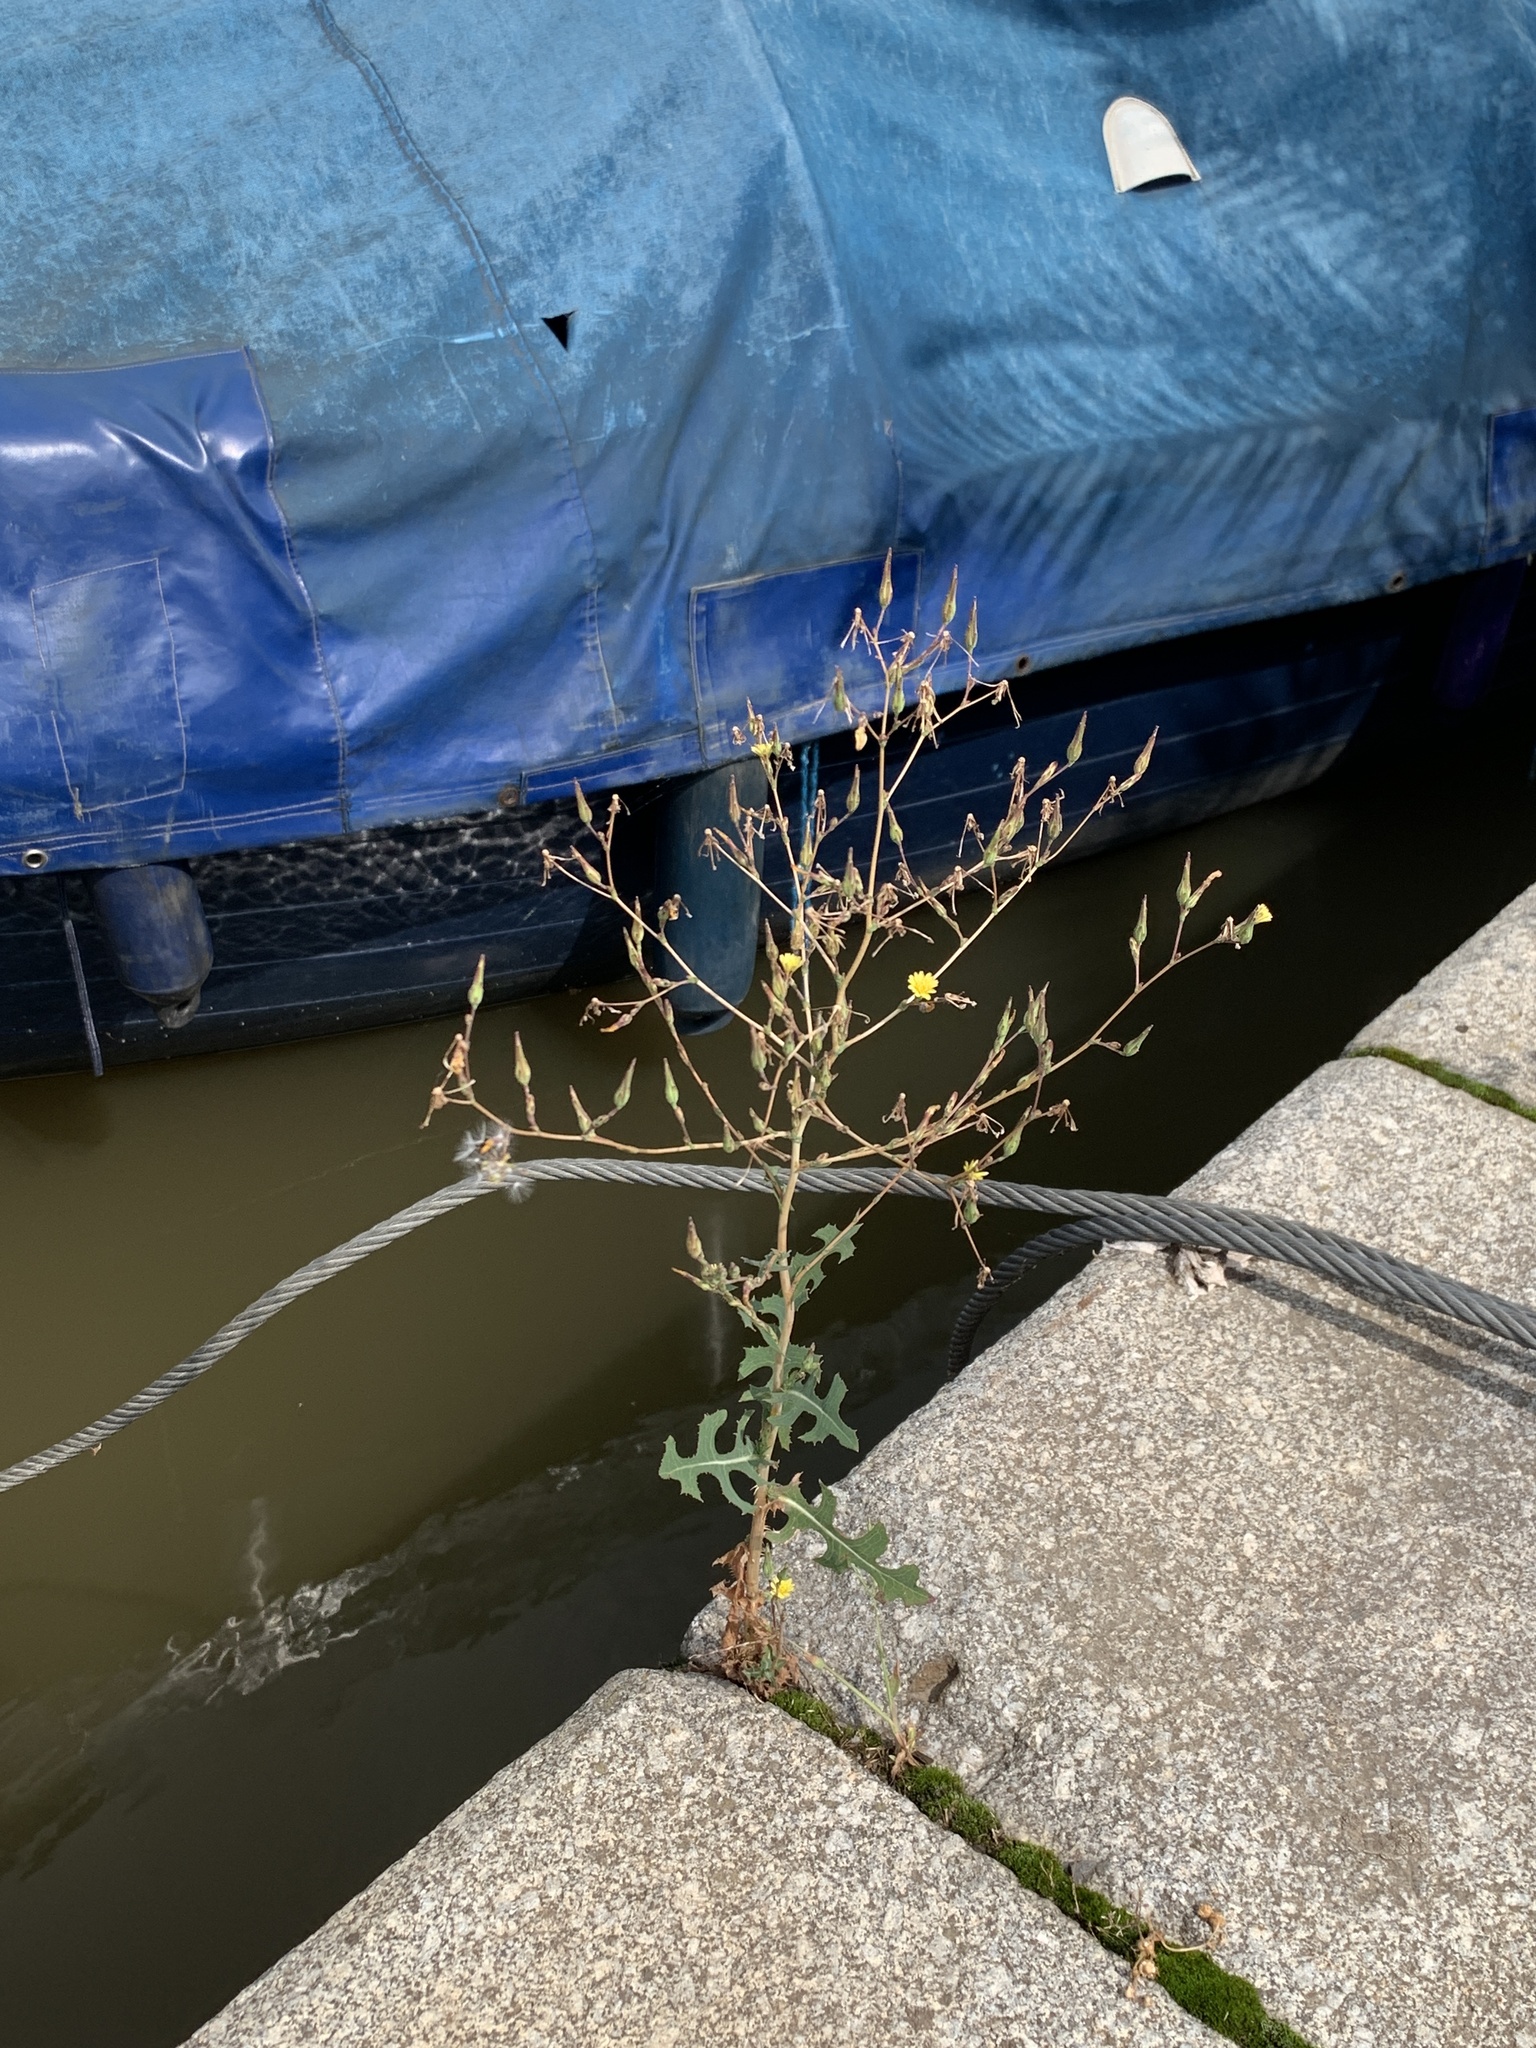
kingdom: Plantae
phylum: Tracheophyta
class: Magnoliopsida
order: Asterales
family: Asteraceae
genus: Lactuca
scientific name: Lactuca serriola
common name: Prickly lettuce
